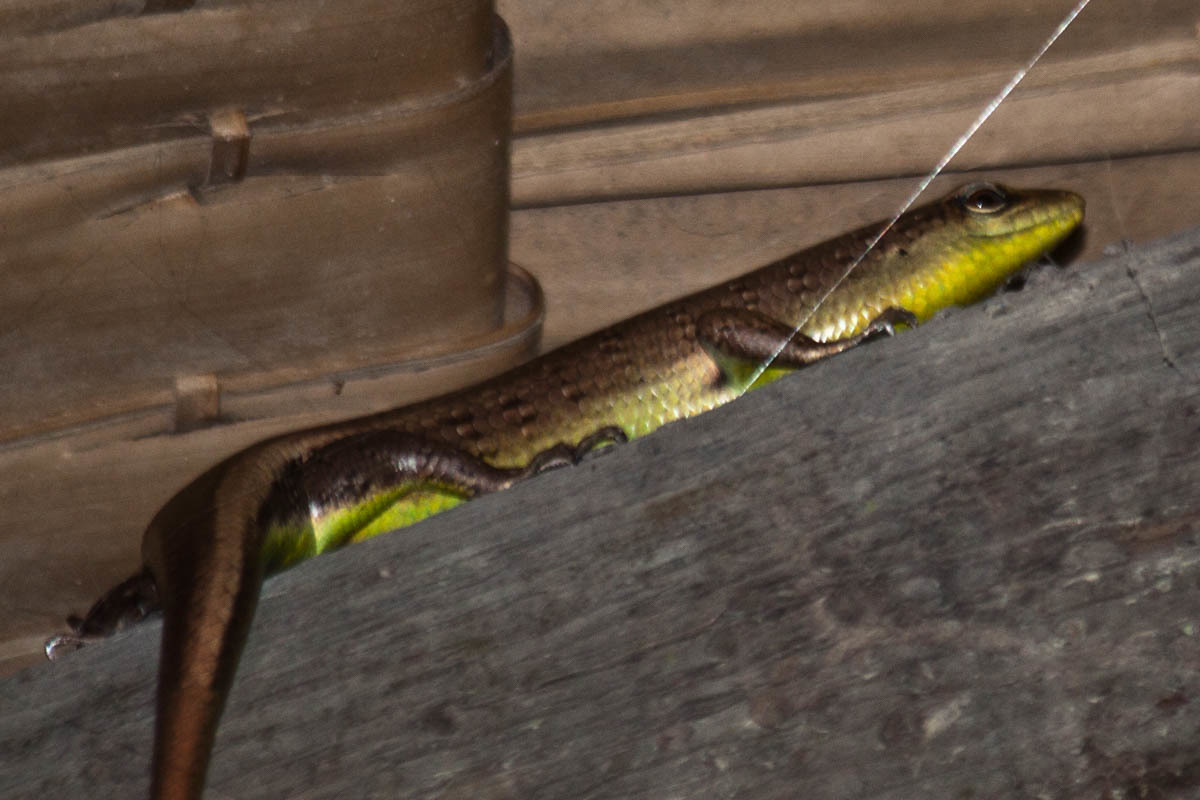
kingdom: Animalia
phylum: Chordata
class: Squamata
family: Scincidae
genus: Dasia
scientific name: Dasia olivacea
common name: Olive dasia
